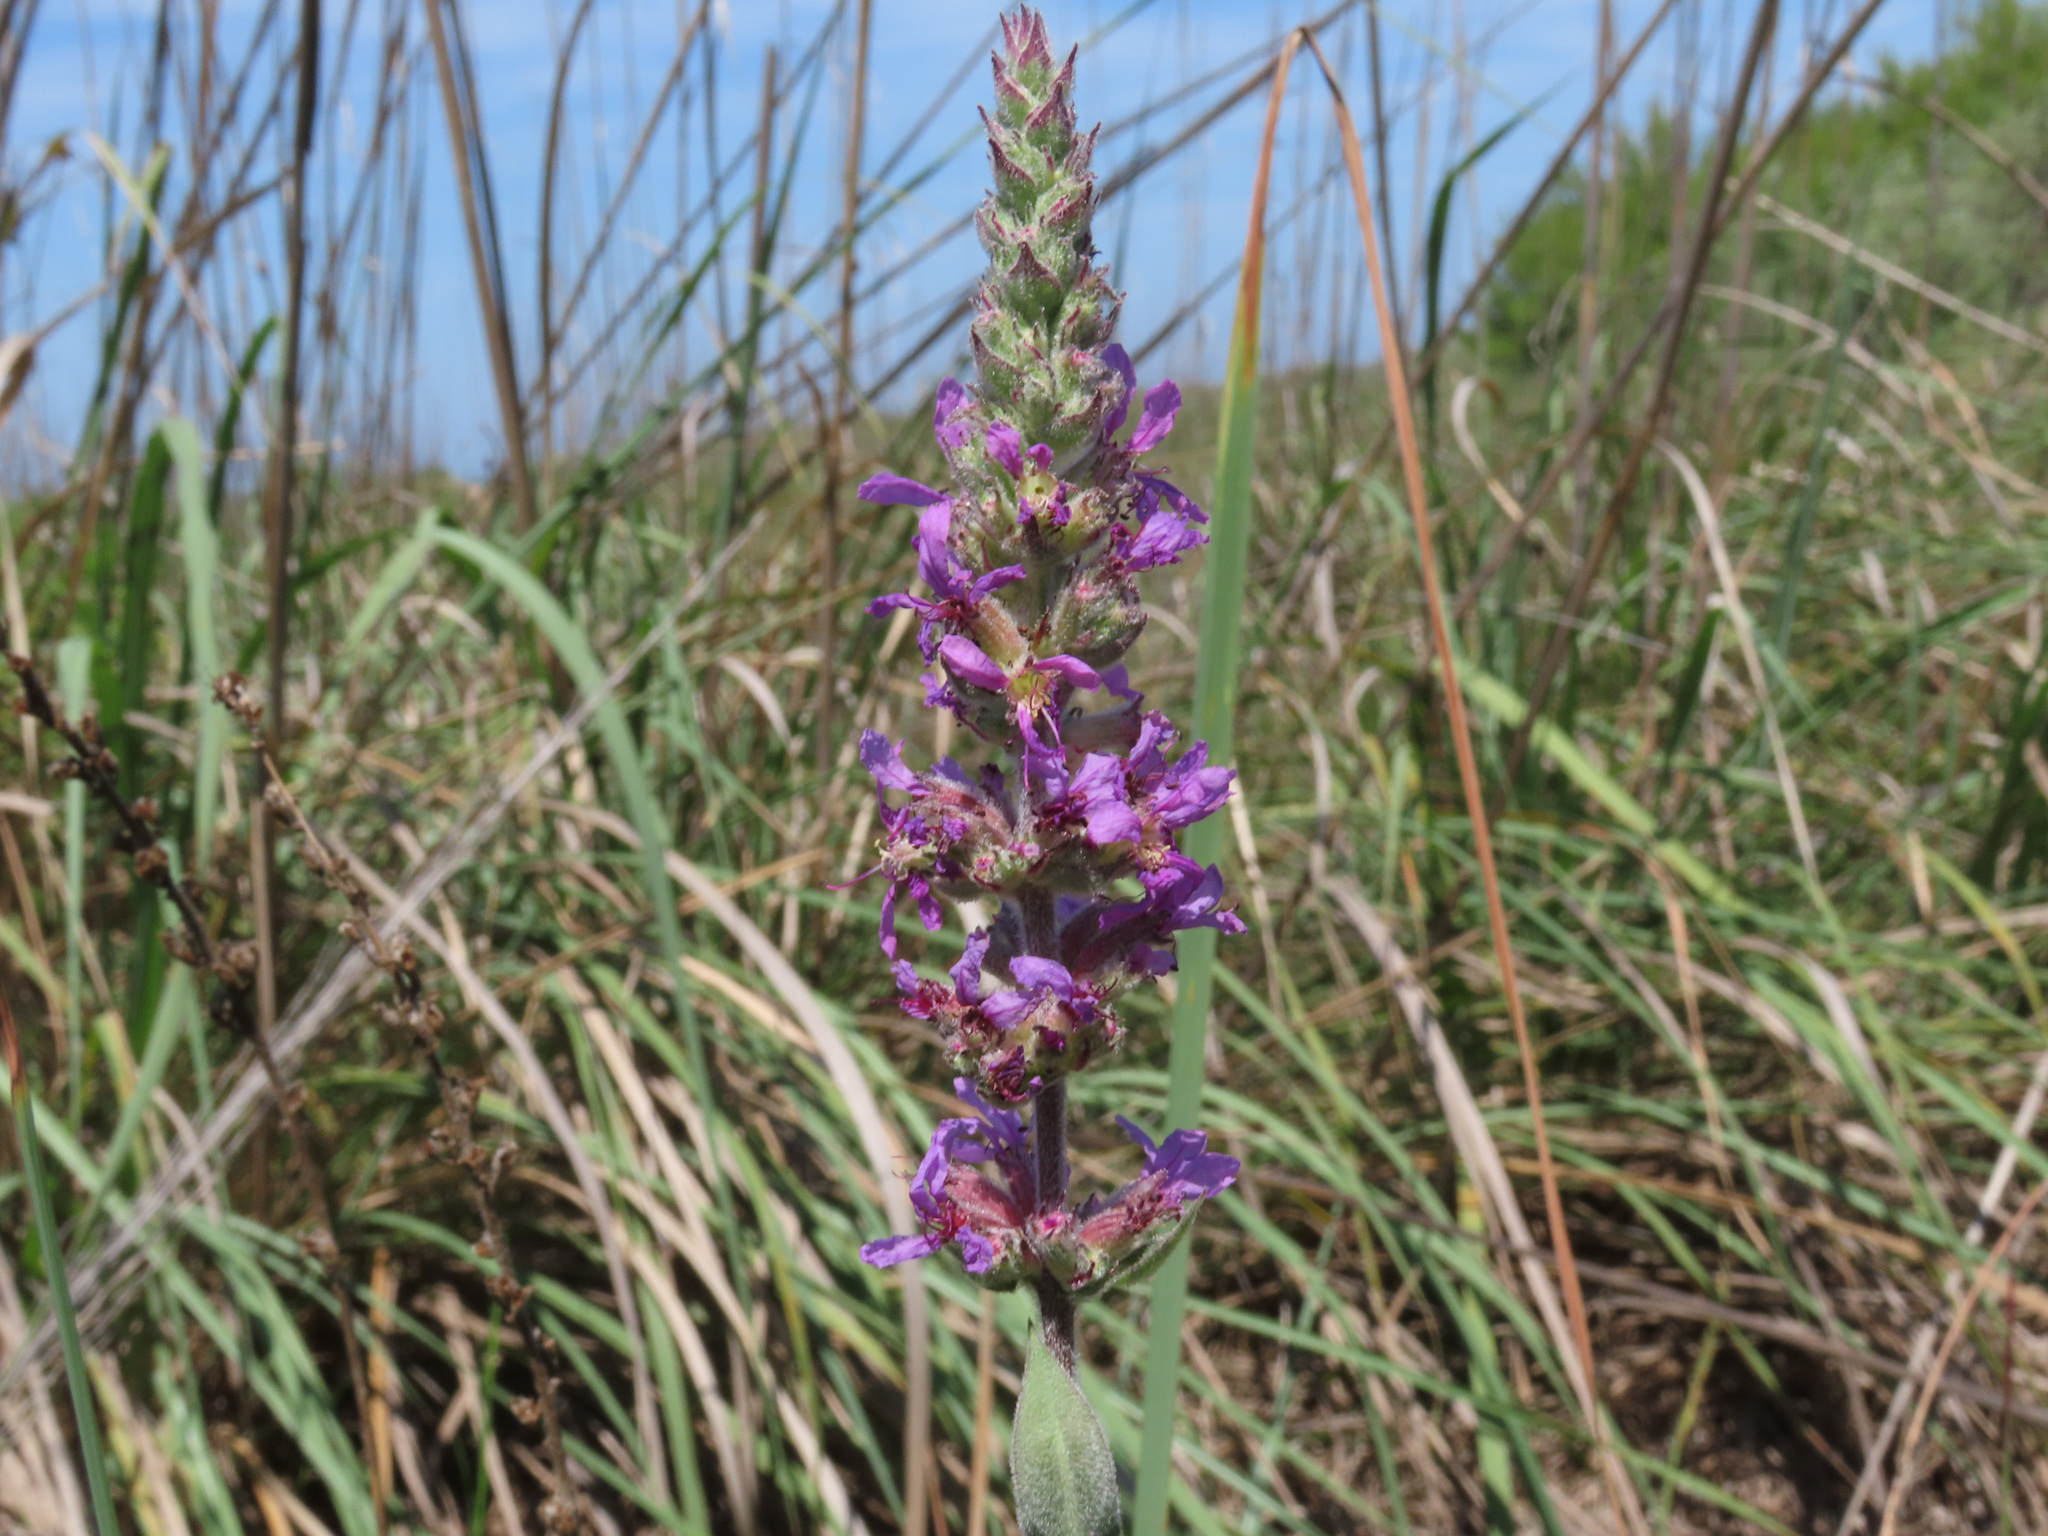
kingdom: Plantae
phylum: Tracheophyta
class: Magnoliopsida
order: Myrtales
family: Lythraceae
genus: Lythrum
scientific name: Lythrum salicaria
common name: Purple loosestrife
